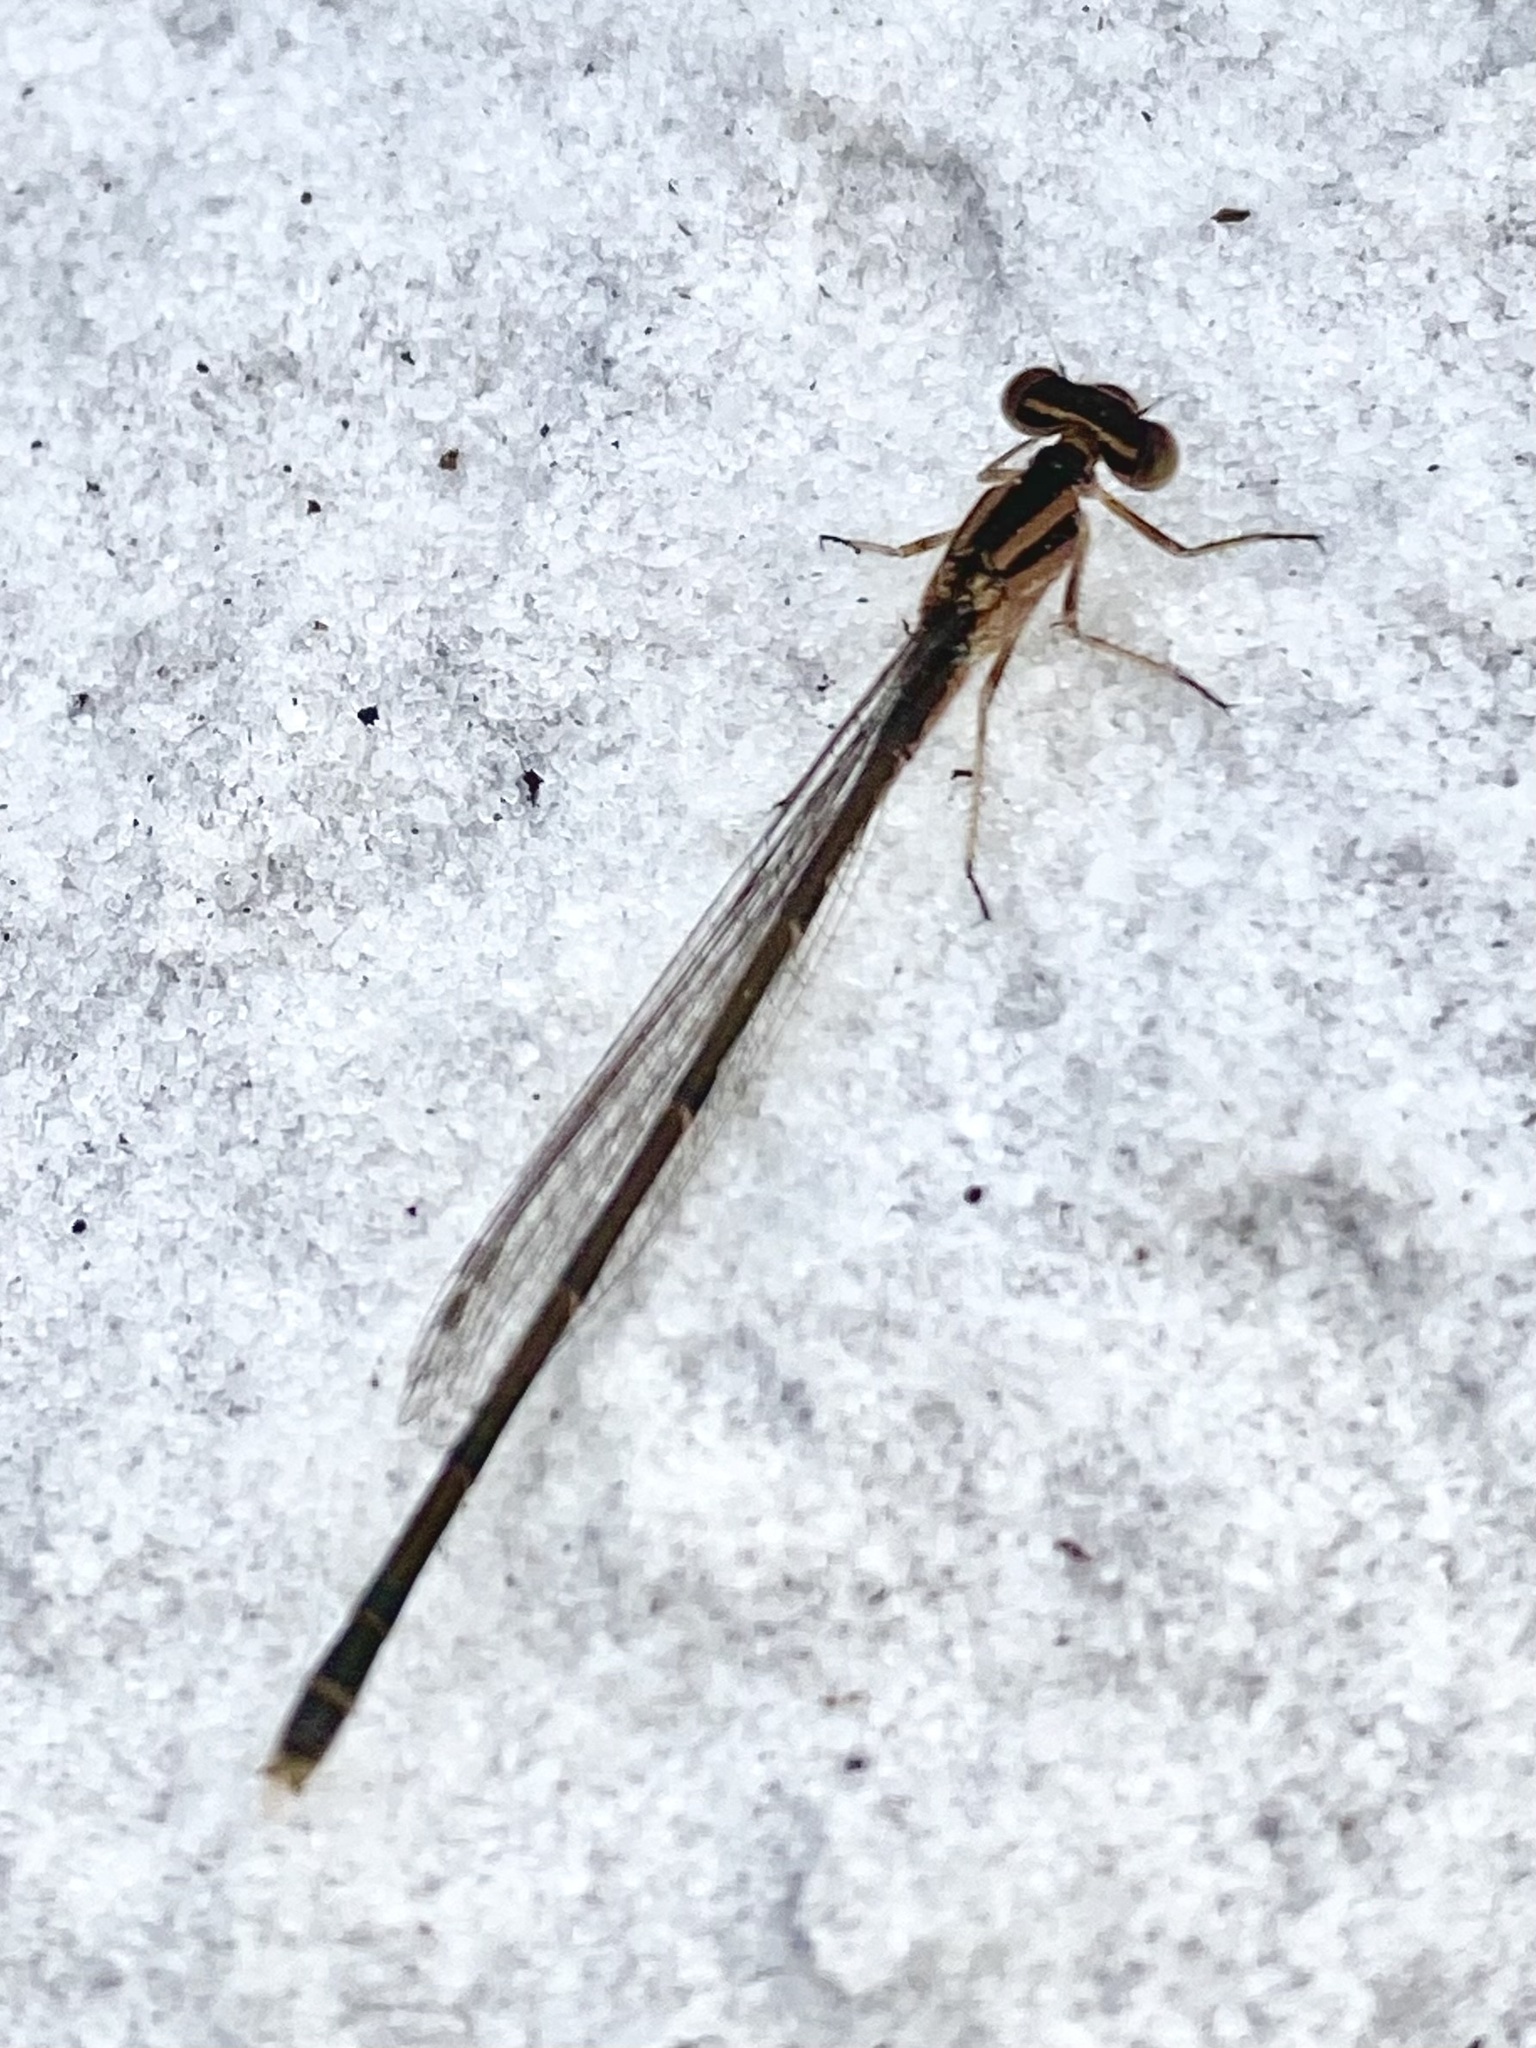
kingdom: Animalia
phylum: Arthropoda
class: Insecta
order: Odonata
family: Coenagrionidae
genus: Enallagma
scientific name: Enallagma pollutum
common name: Florida bluet
